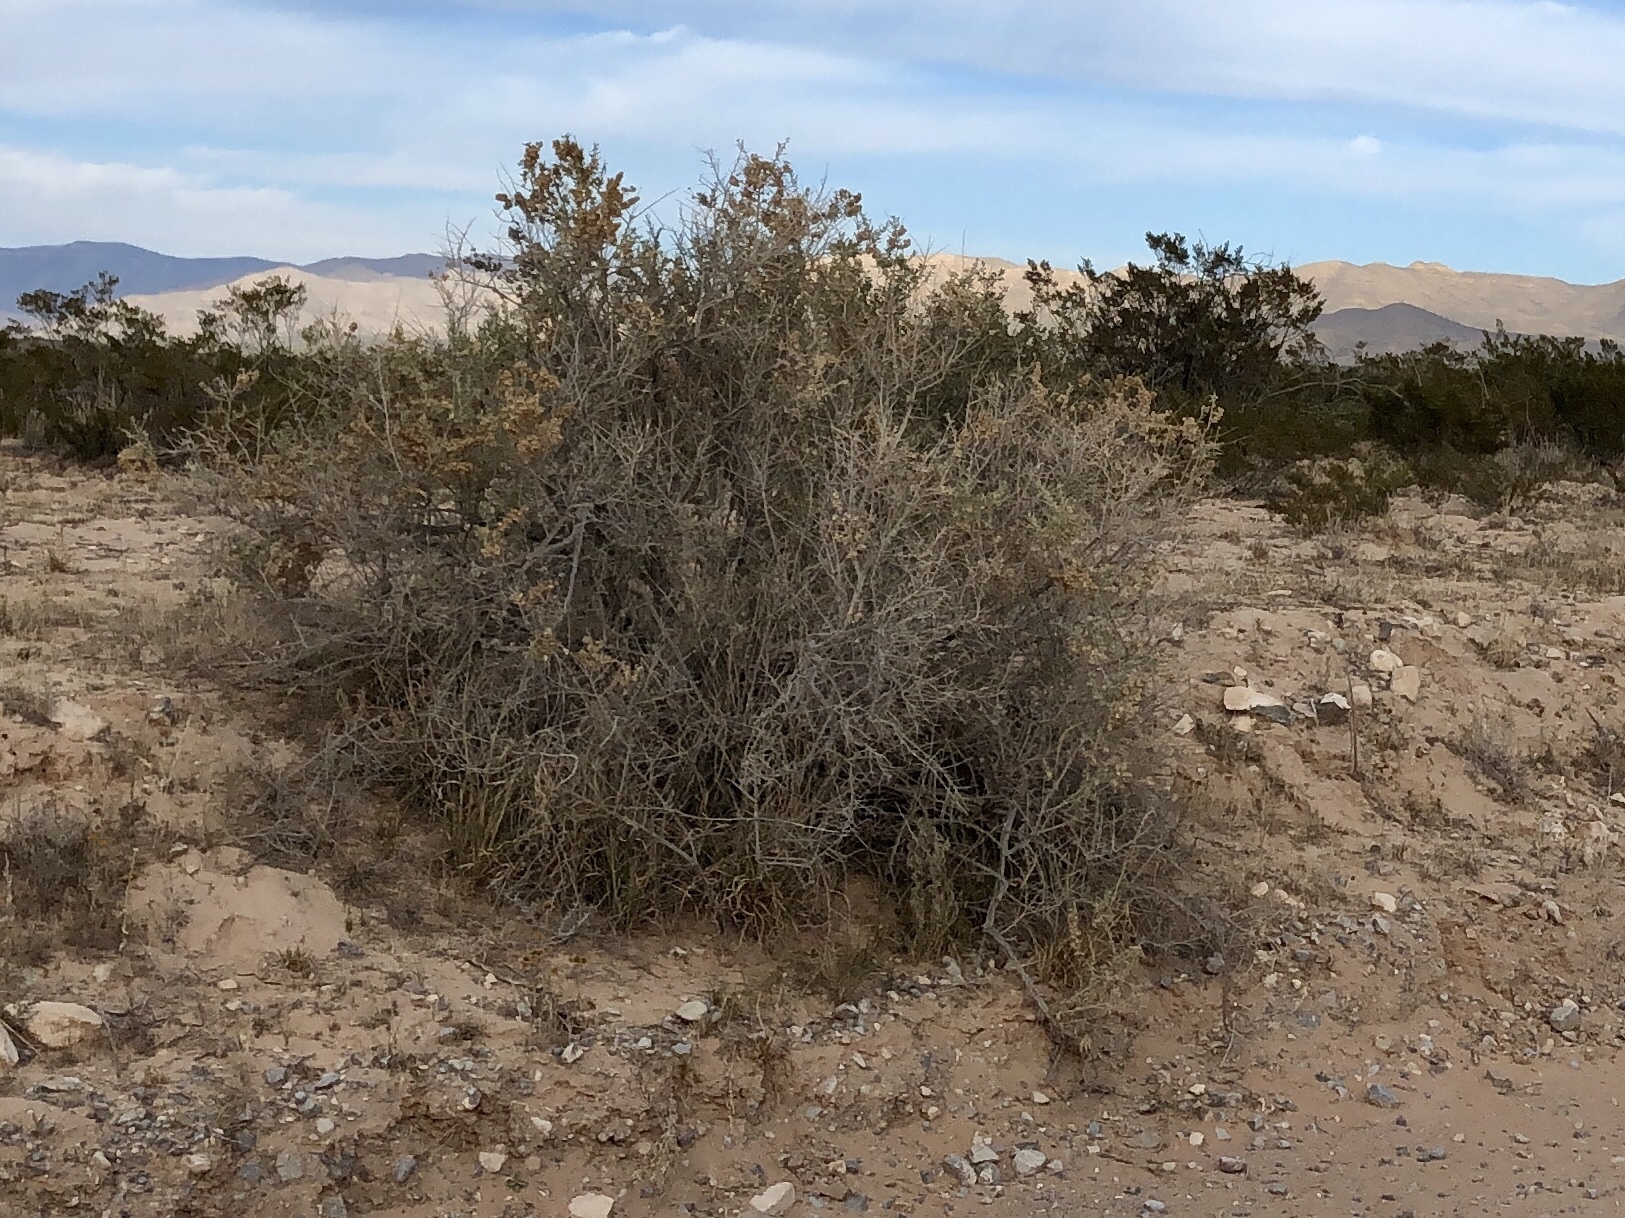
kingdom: Plantae
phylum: Tracheophyta
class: Magnoliopsida
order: Caryophyllales
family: Amaranthaceae
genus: Atriplex
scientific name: Atriplex canescens
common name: Four-wing saltbush
